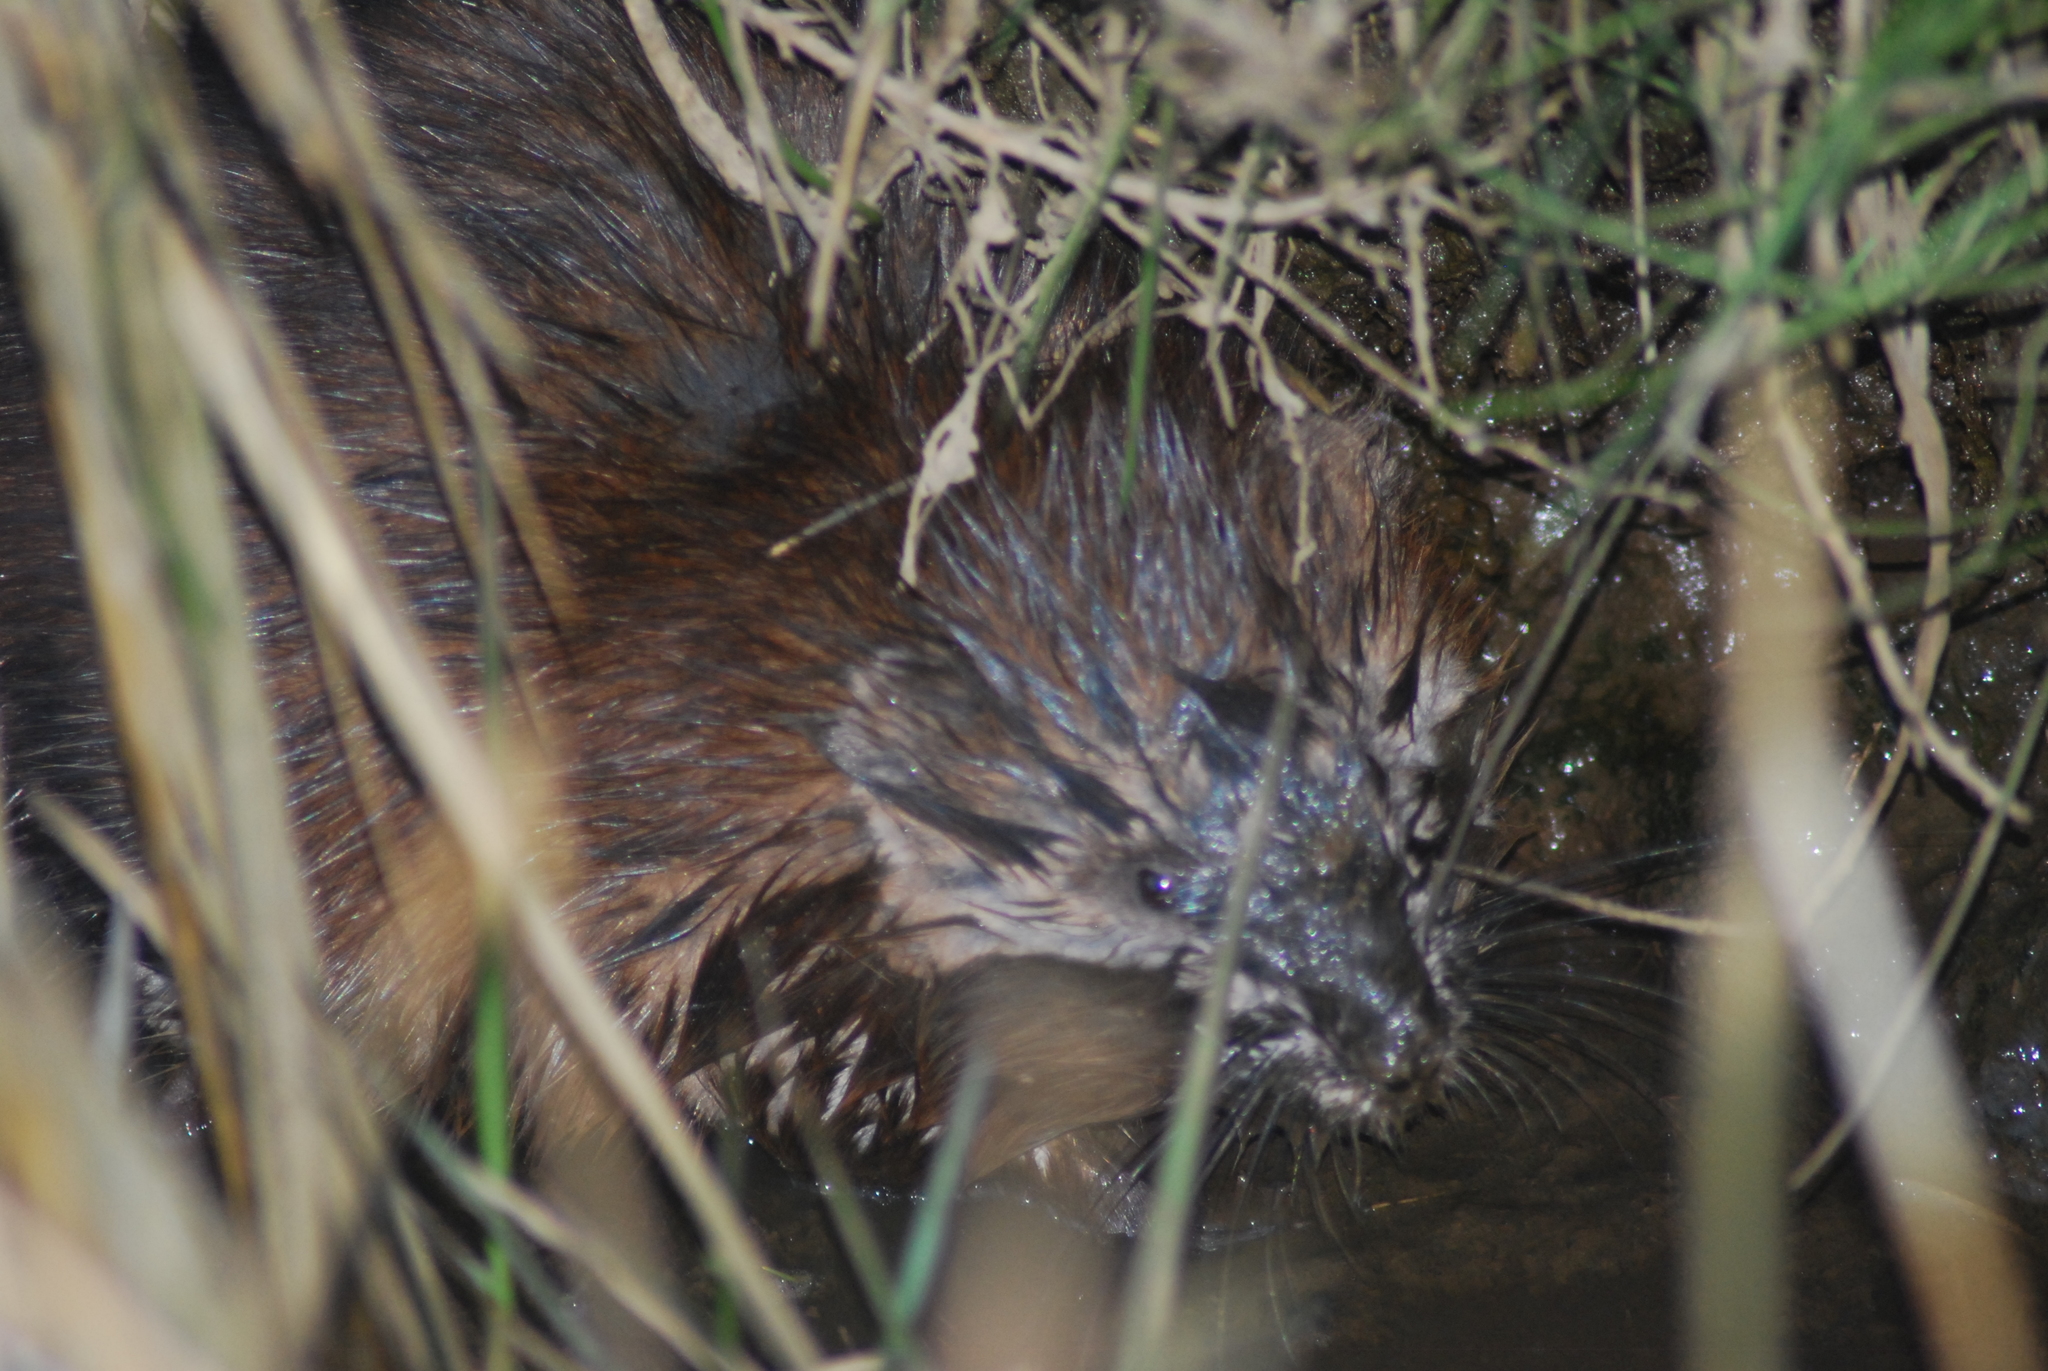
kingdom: Animalia
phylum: Chordata
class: Mammalia
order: Rodentia
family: Cricetidae
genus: Ondatra
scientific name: Ondatra zibethicus
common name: Muskrat
